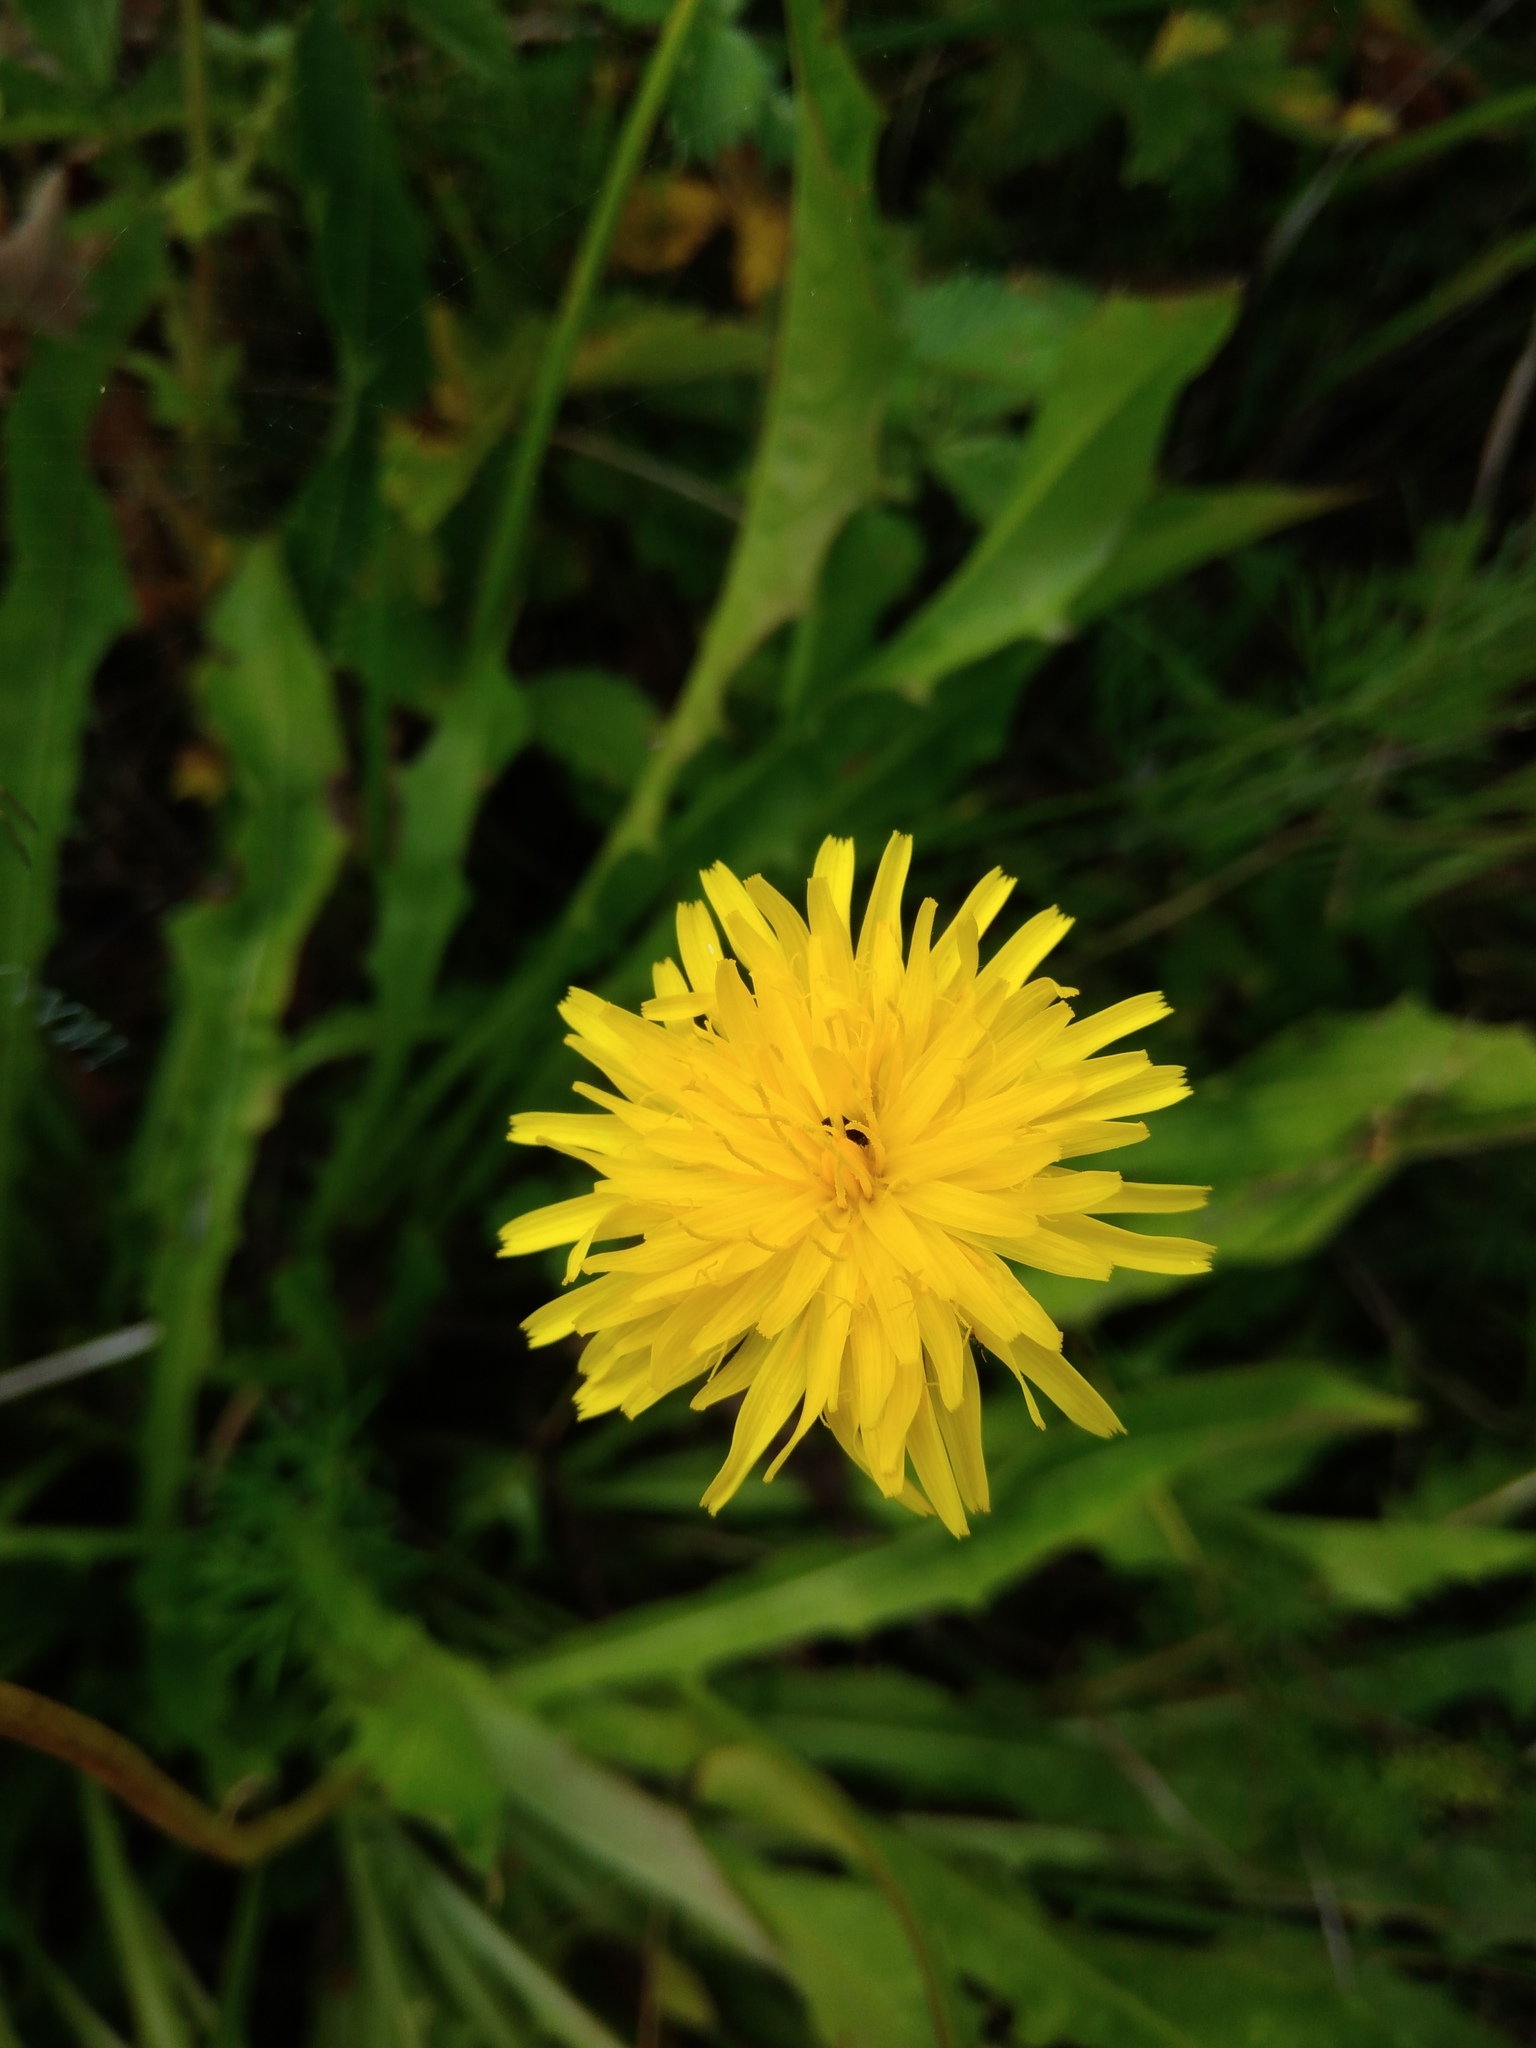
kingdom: Plantae
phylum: Tracheophyta
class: Magnoliopsida
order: Asterales
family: Asteraceae
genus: Leontodon
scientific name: Leontodon hispidus
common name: Rough hawkbit
